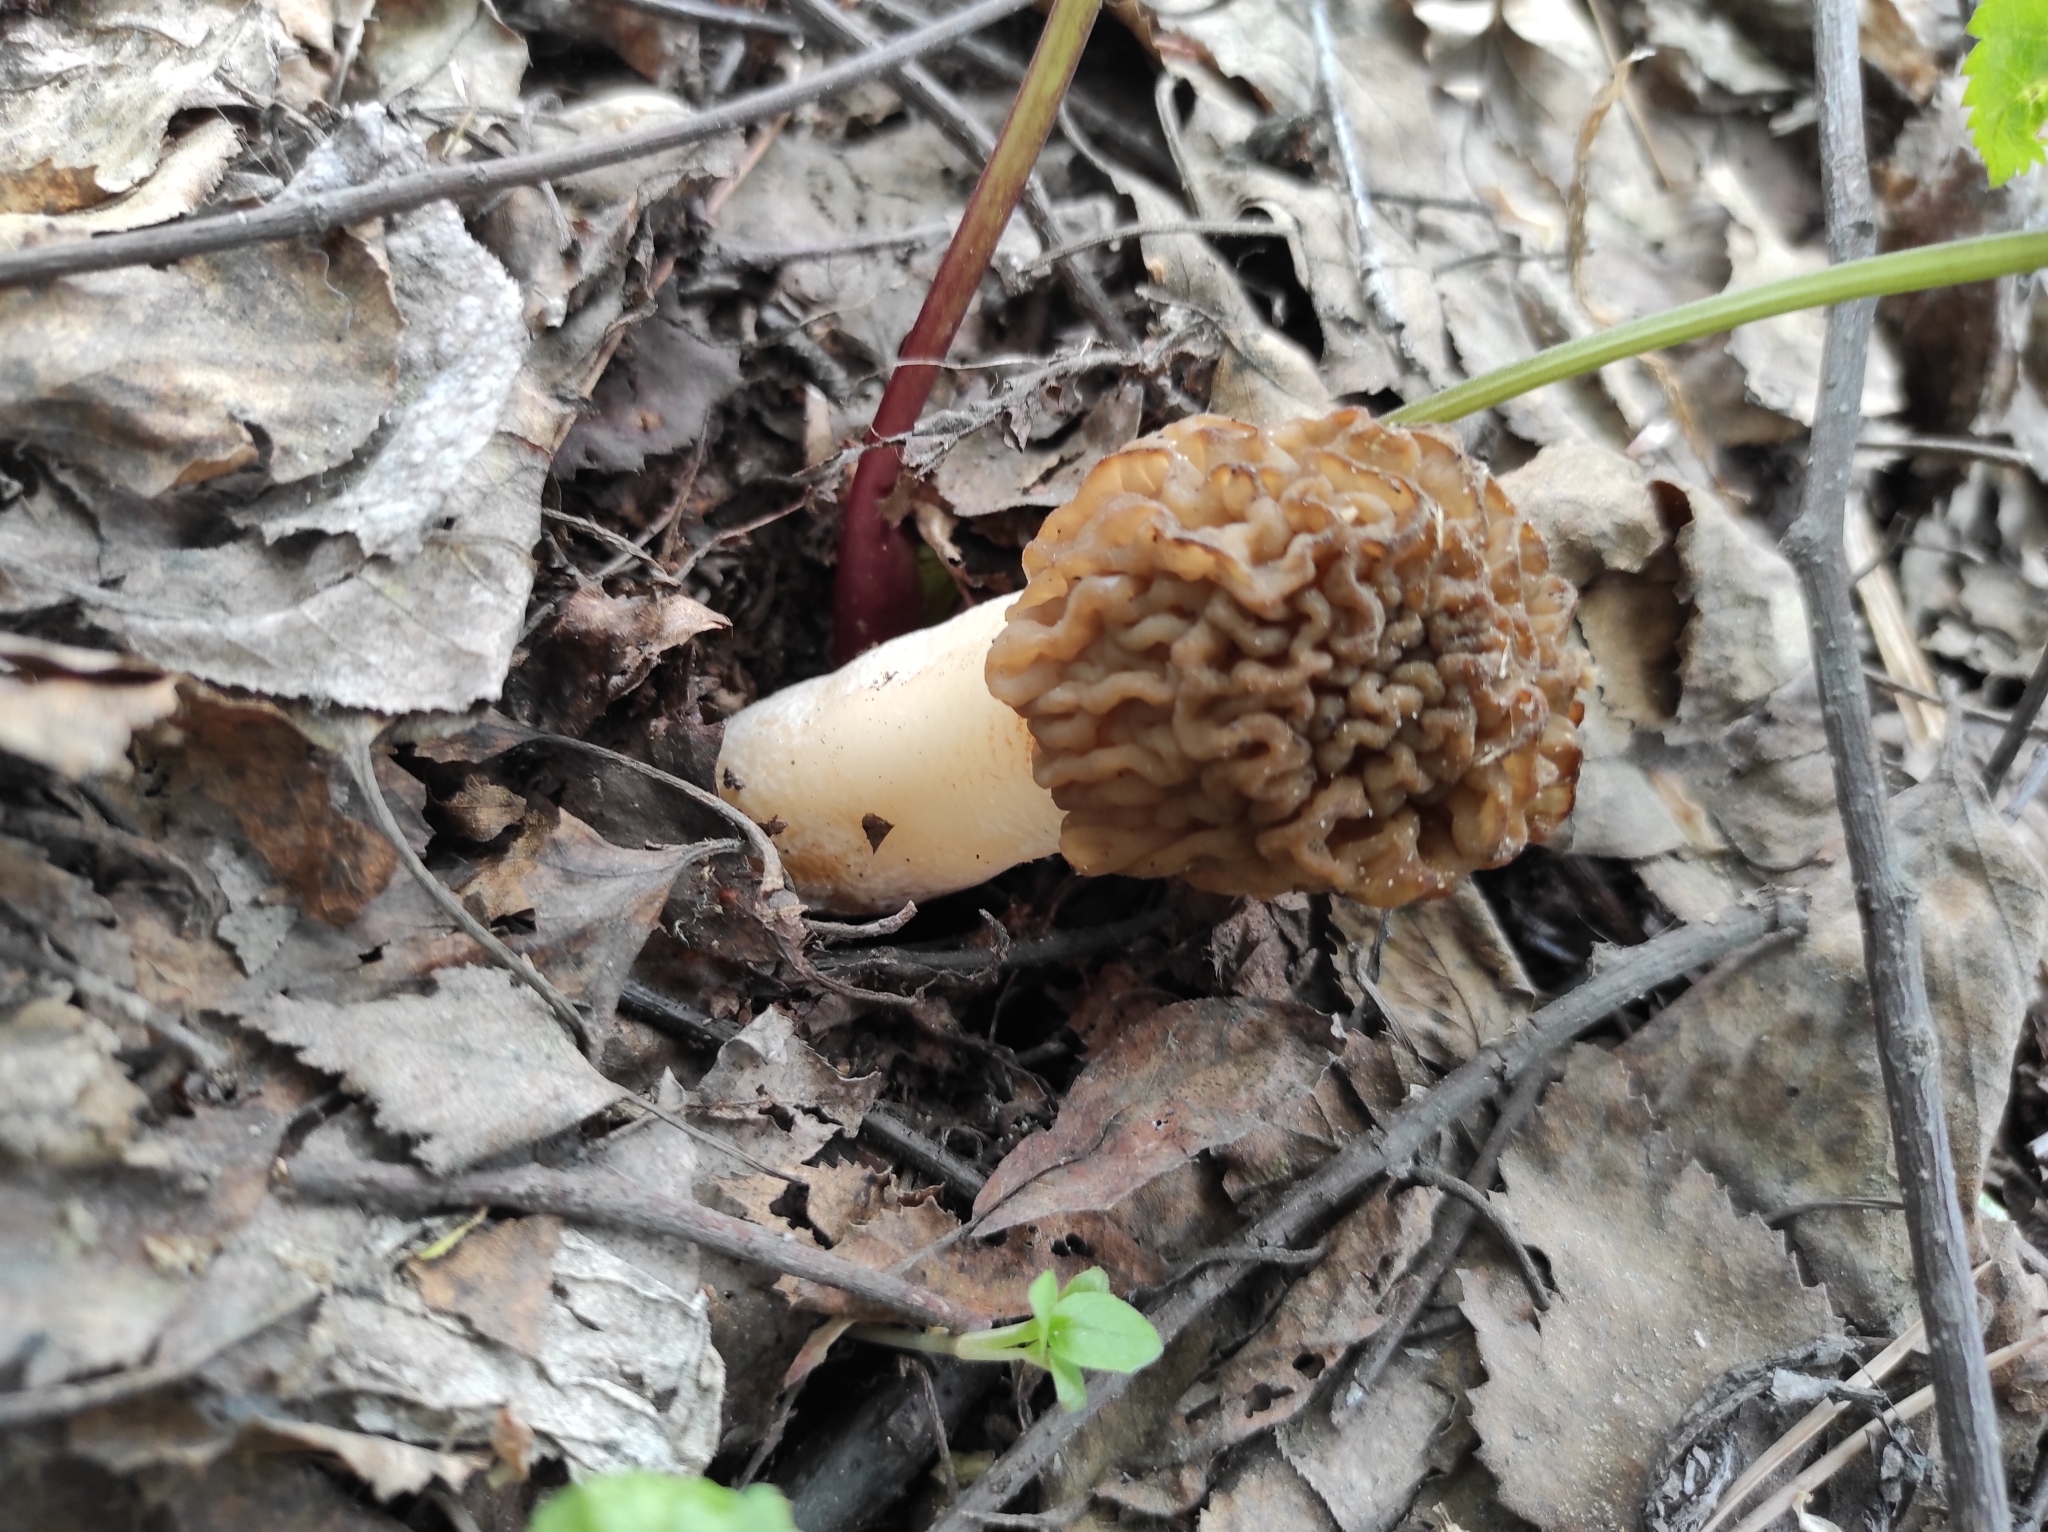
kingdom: Fungi
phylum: Ascomycota
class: Pezizomycetes
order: Pezizales
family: Morchellaceae
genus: Verpa
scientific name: Verpa bohemica
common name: Wrinkled thimble morel
